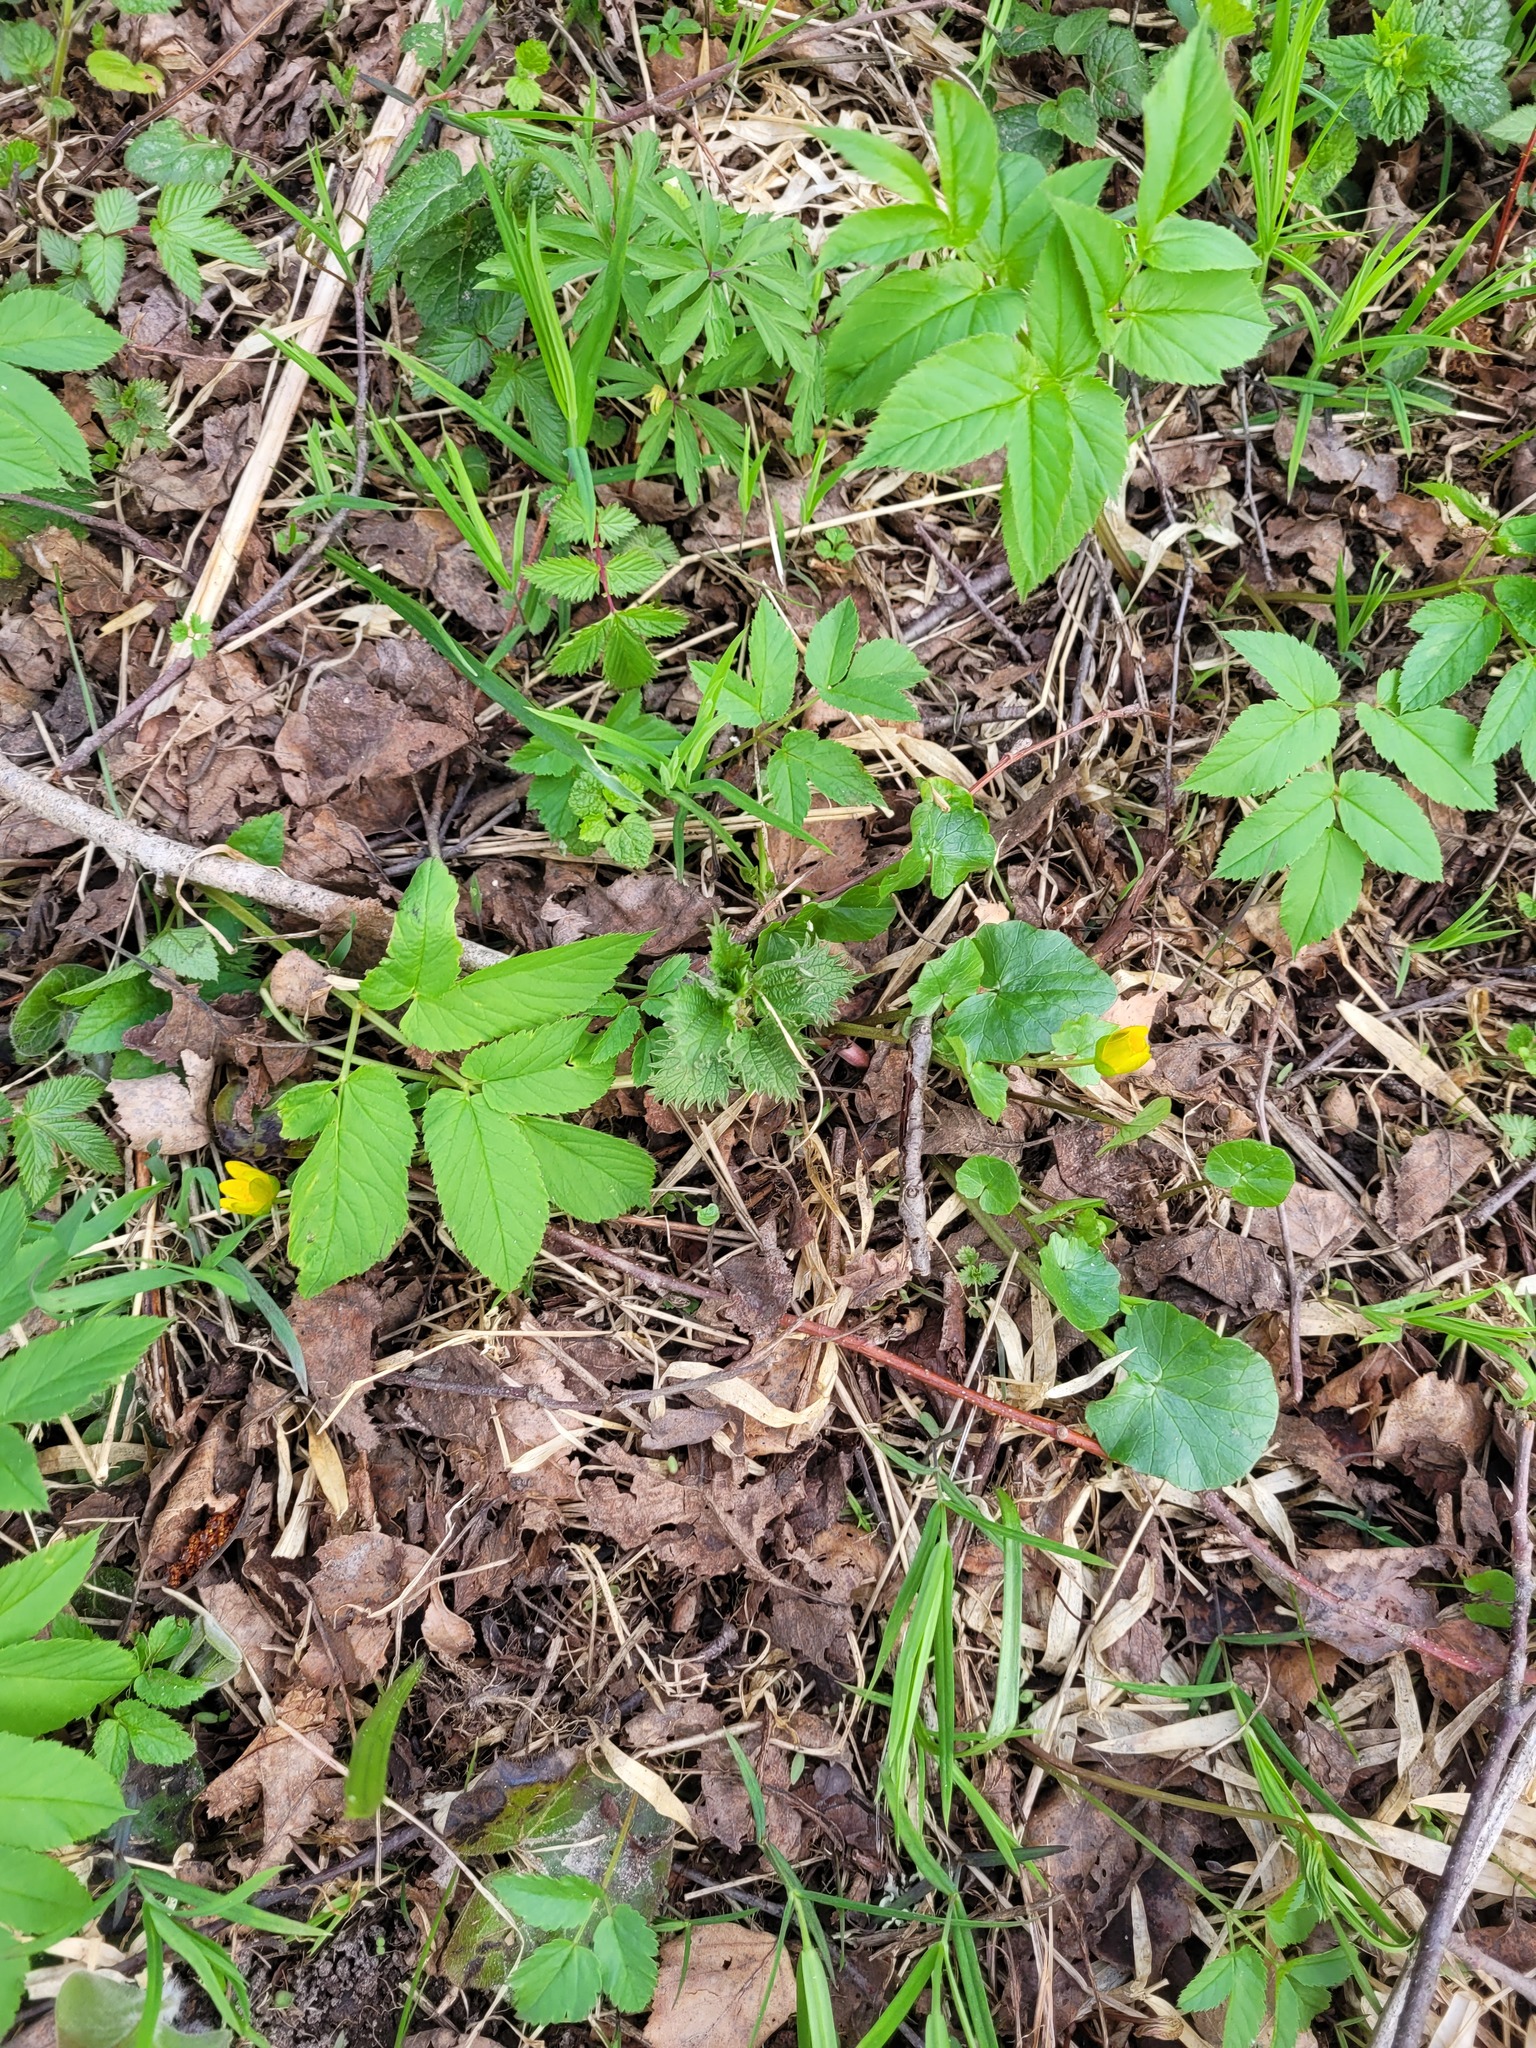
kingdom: Plantae
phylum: Tracheophyta
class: Magnoliopsida
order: Ranunculales
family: Ranunculaceae
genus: Ficaria
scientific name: Ficaria verna
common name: Lesser celandine
